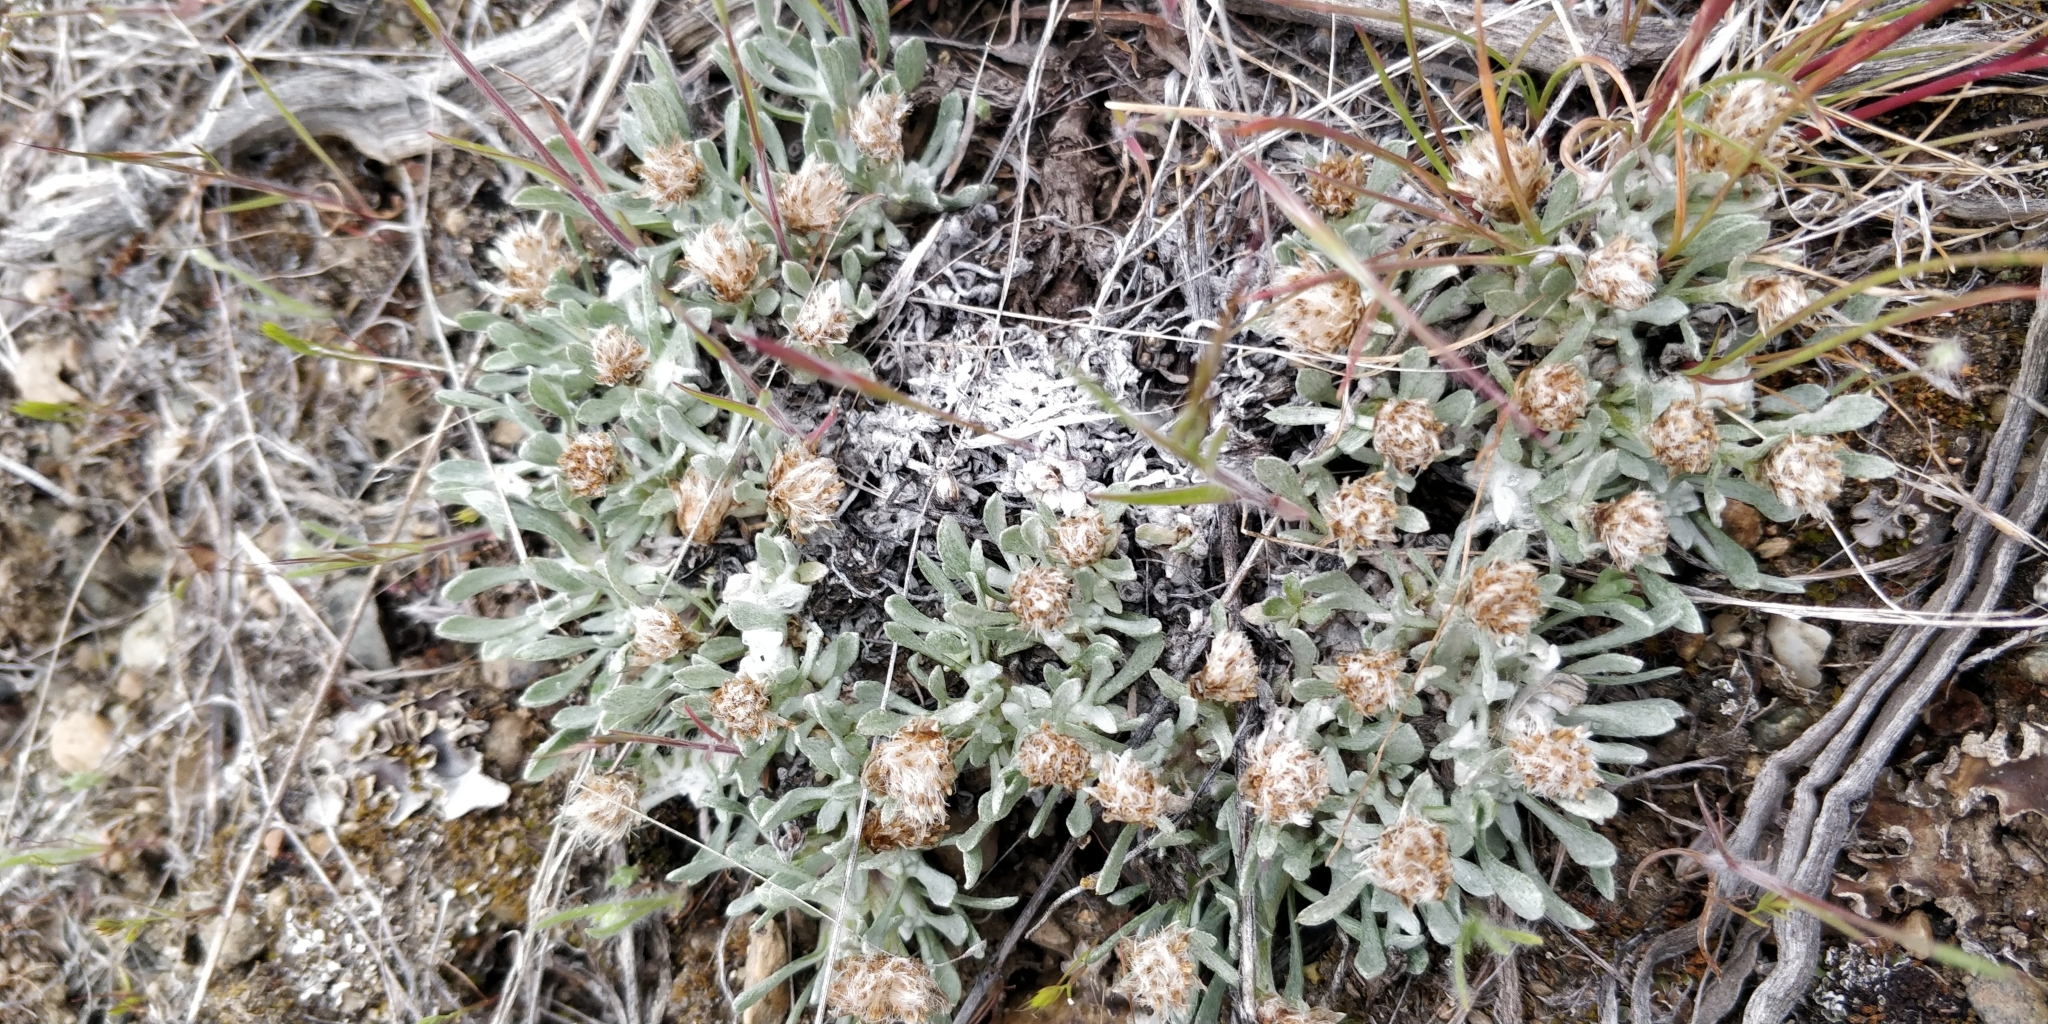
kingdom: Plantae
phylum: Tracheophyta
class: Magnoliopsida
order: Asterales
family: Asteraceae
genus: Antennaria
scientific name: Antennaria dimorpha
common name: Cushion pussytoes
